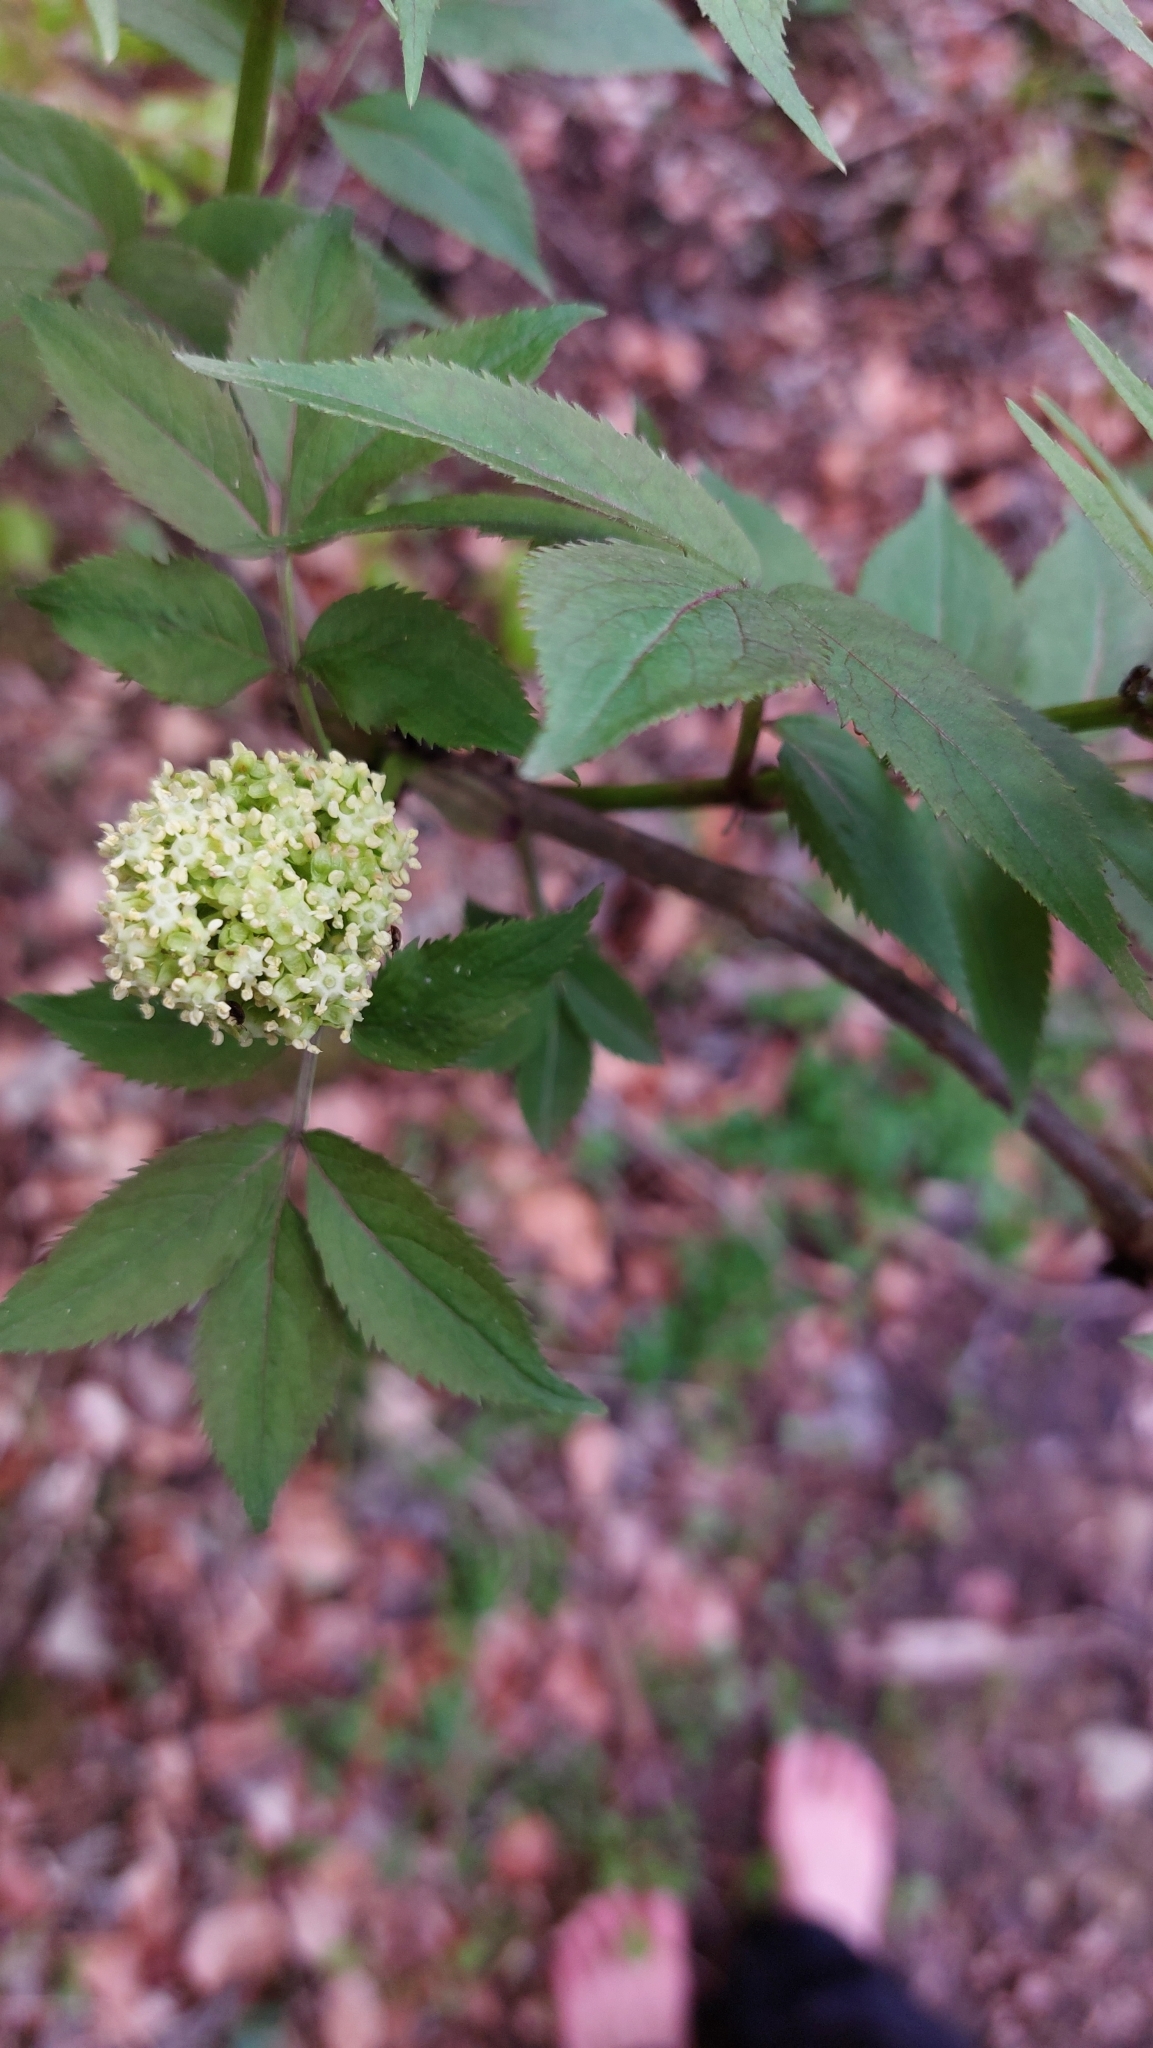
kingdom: Plantae
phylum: Tracheophyta
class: Magnoliopsida
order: Dipsacales
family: Viburnaceae
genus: Sambucus
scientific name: Sambucus racemosa
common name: Red-berried elder
